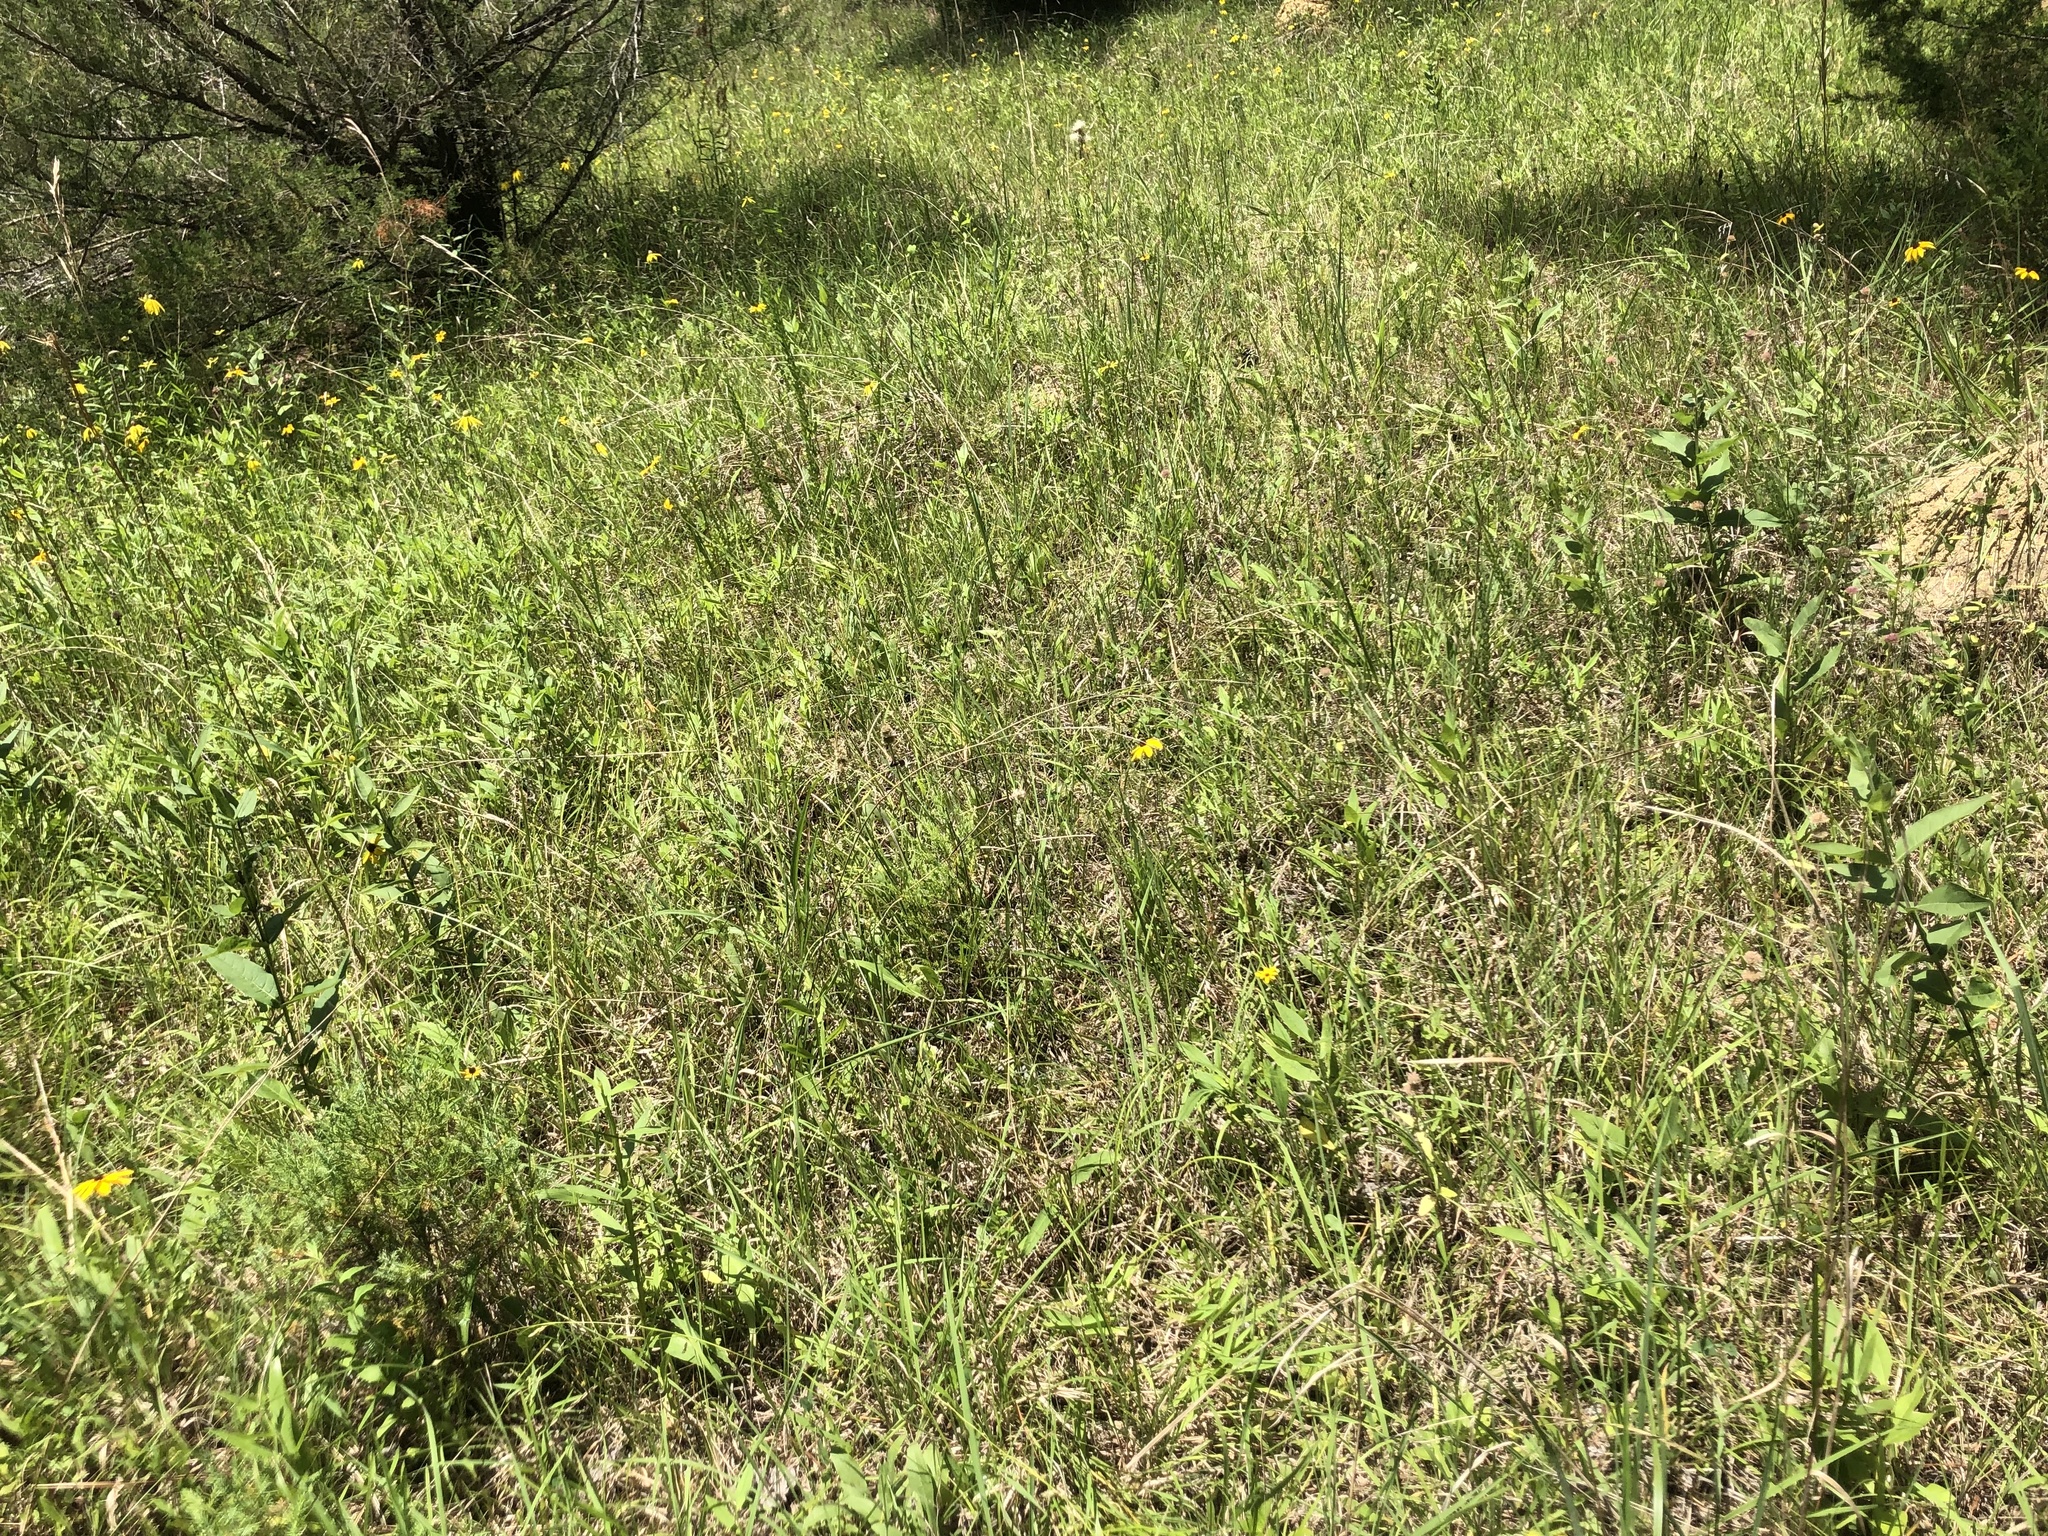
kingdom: Plantae
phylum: Tracheophyta
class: Magnoliopsida
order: Fabales
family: Polygalaceae
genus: Polygala
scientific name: Polygala boykinii
